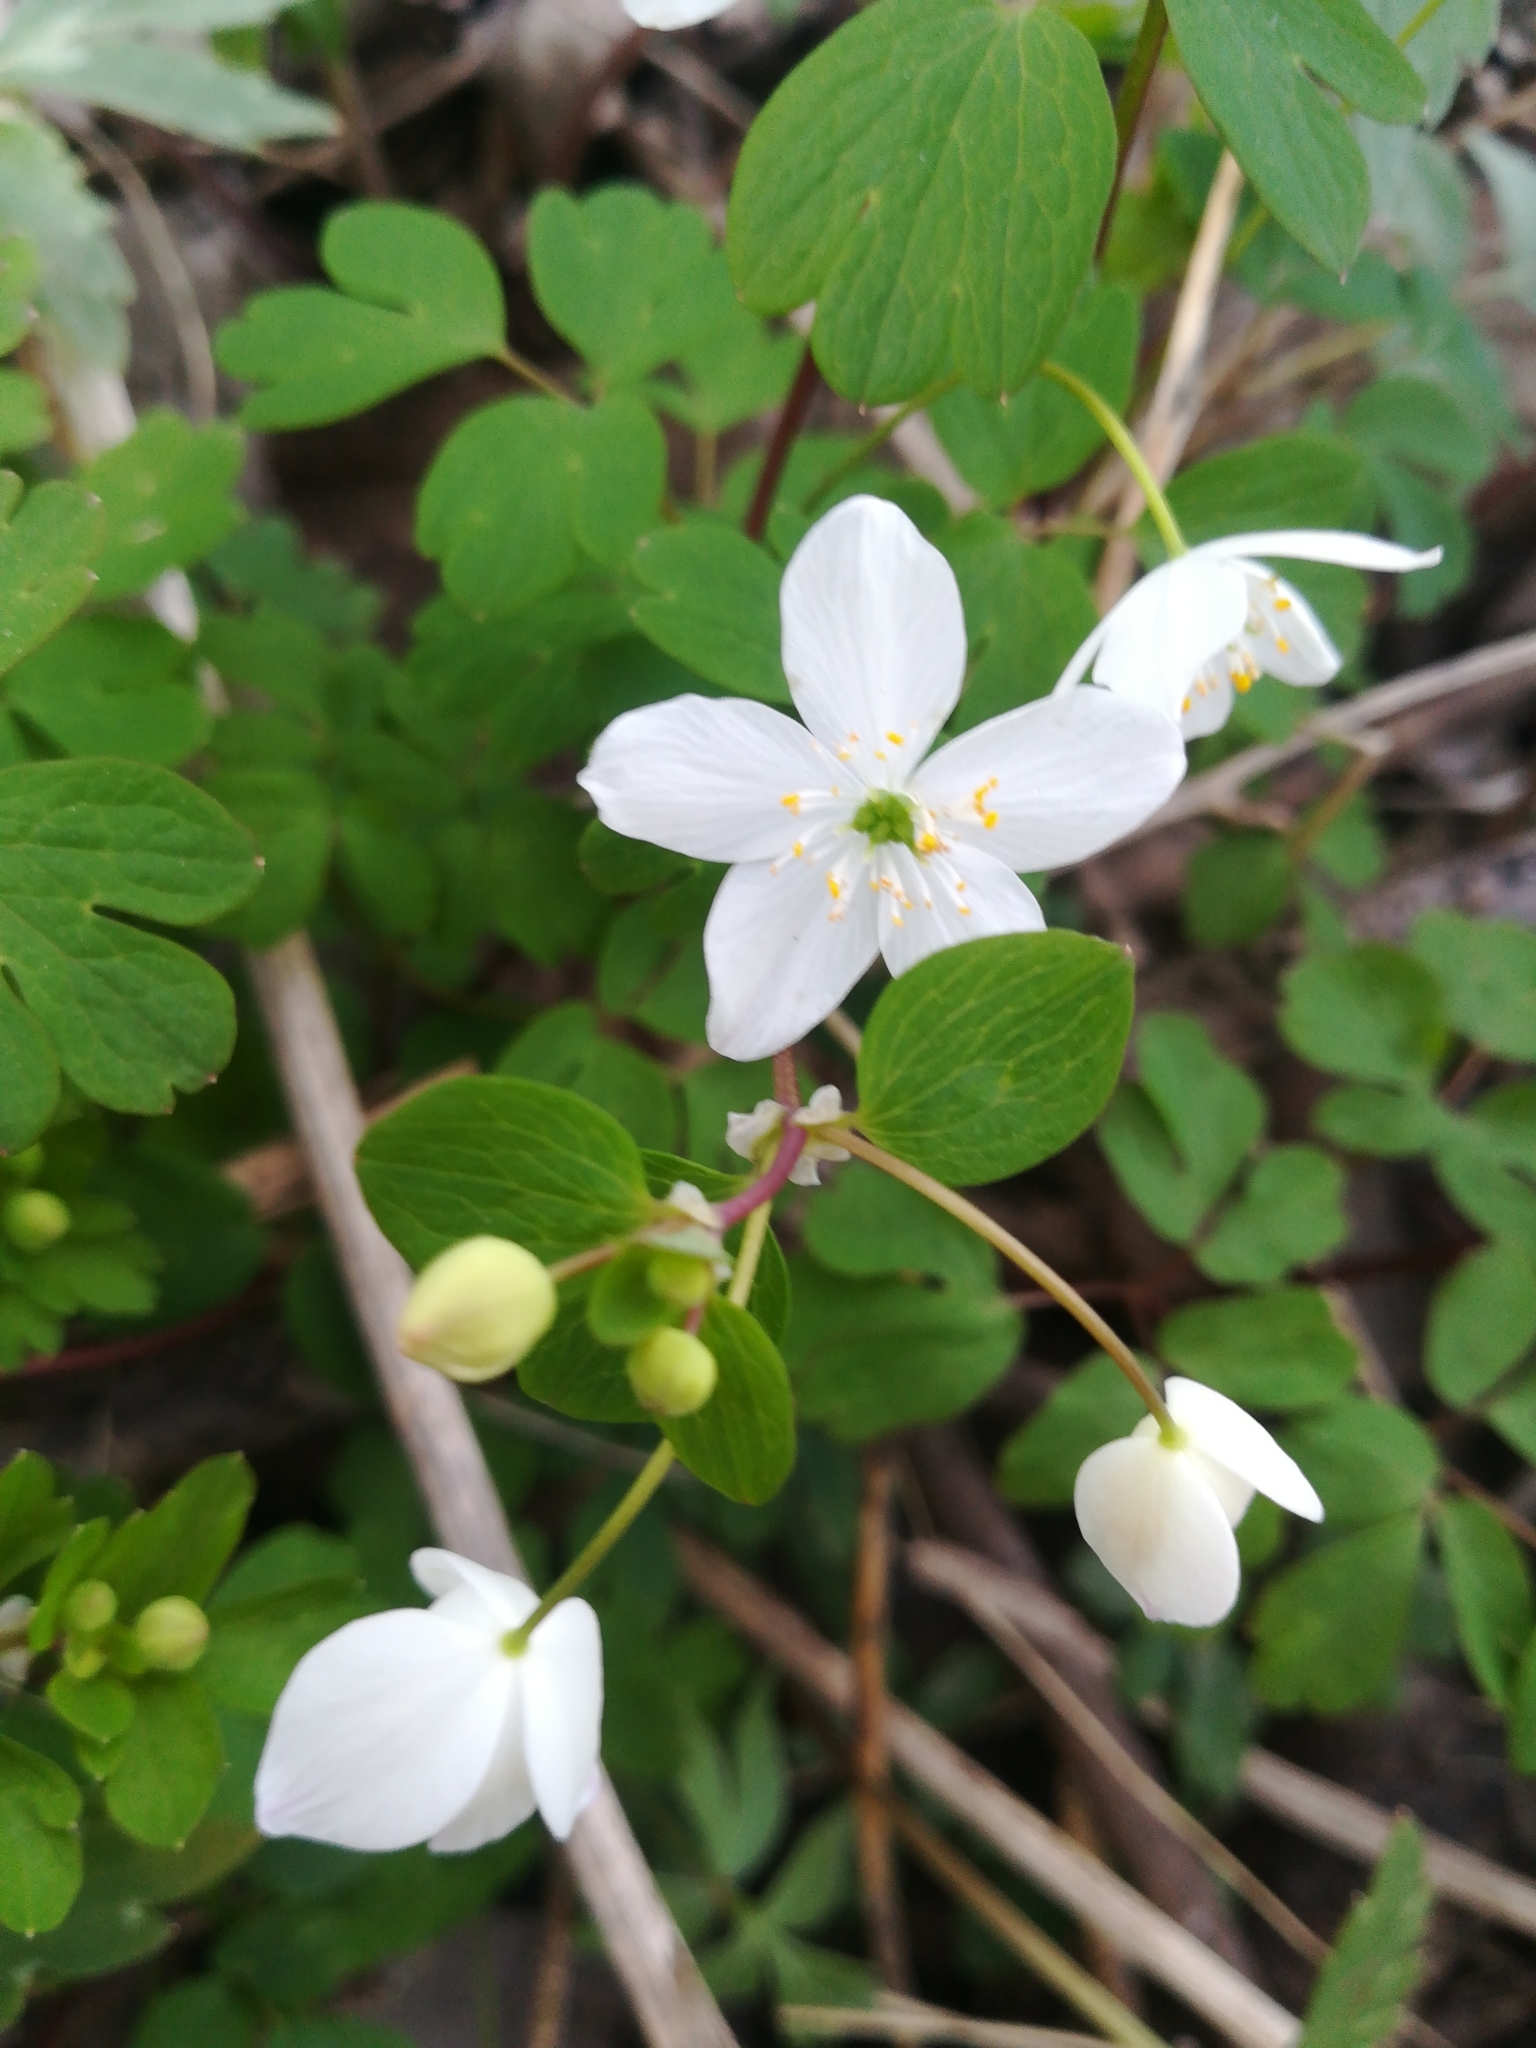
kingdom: Plantae
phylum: Tracheophyta
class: Magnoliopsida
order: Ranunculales
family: Ranunculaceae
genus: Enemion
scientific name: Enemion biternatum
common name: Eastern false rue-anemone
